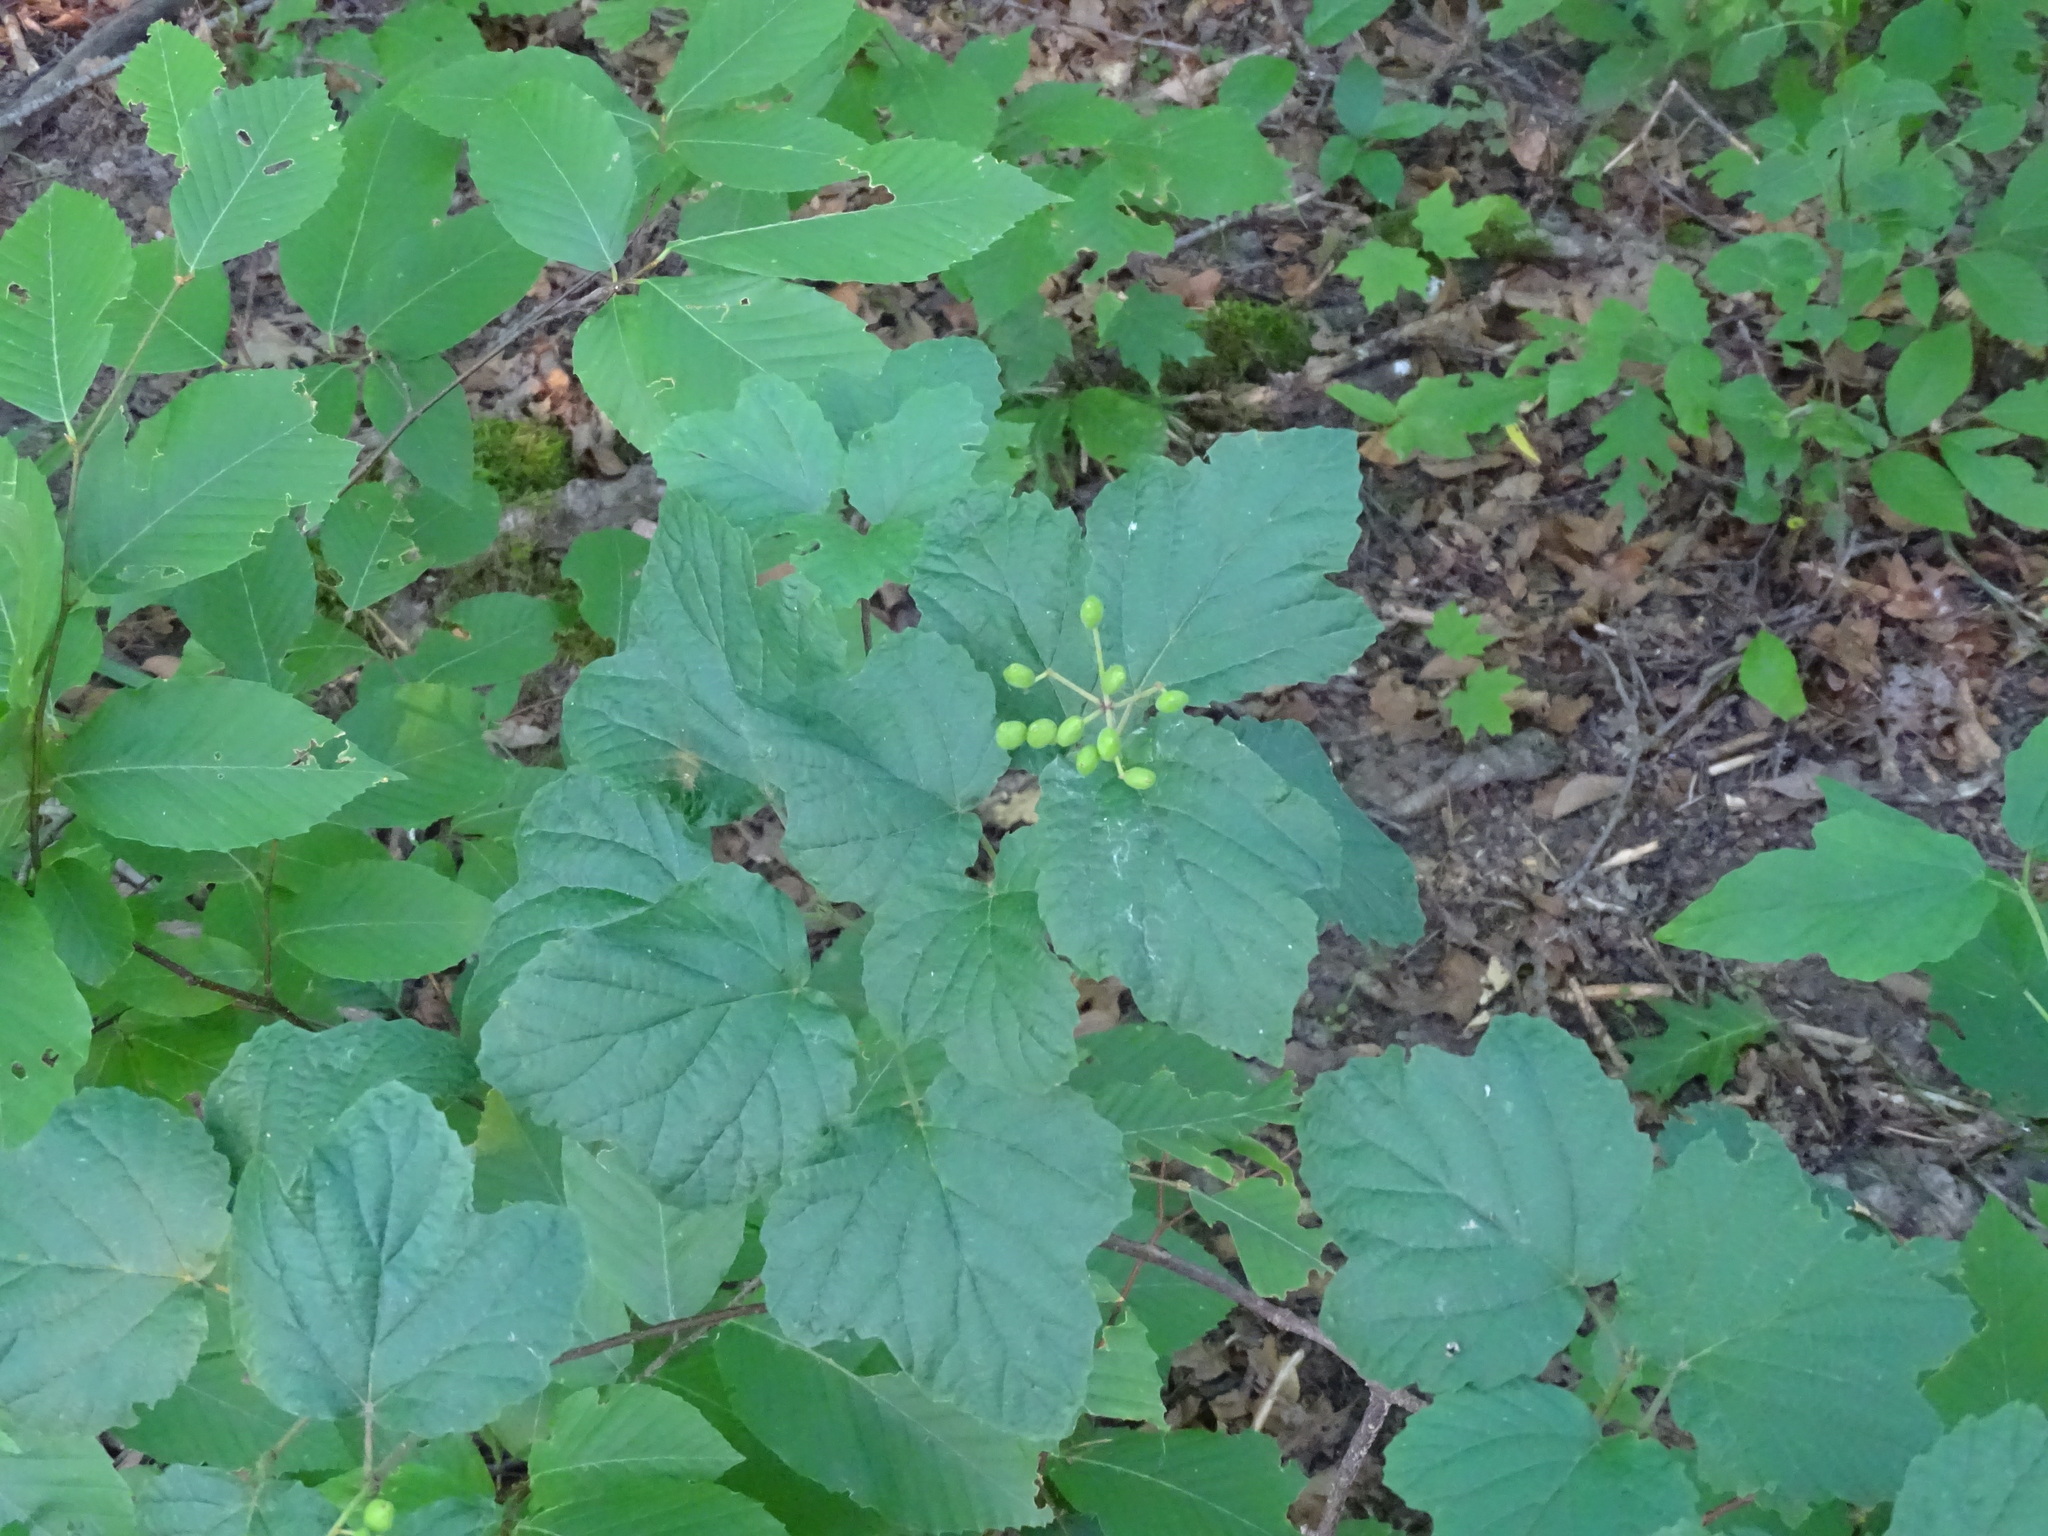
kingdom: Plantae
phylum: Tracheophyta
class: Magnoliopsida
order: Dipsacales
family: Viburnaceae
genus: Viburnum
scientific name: Viburnum acerifolium
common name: Dockmackie
